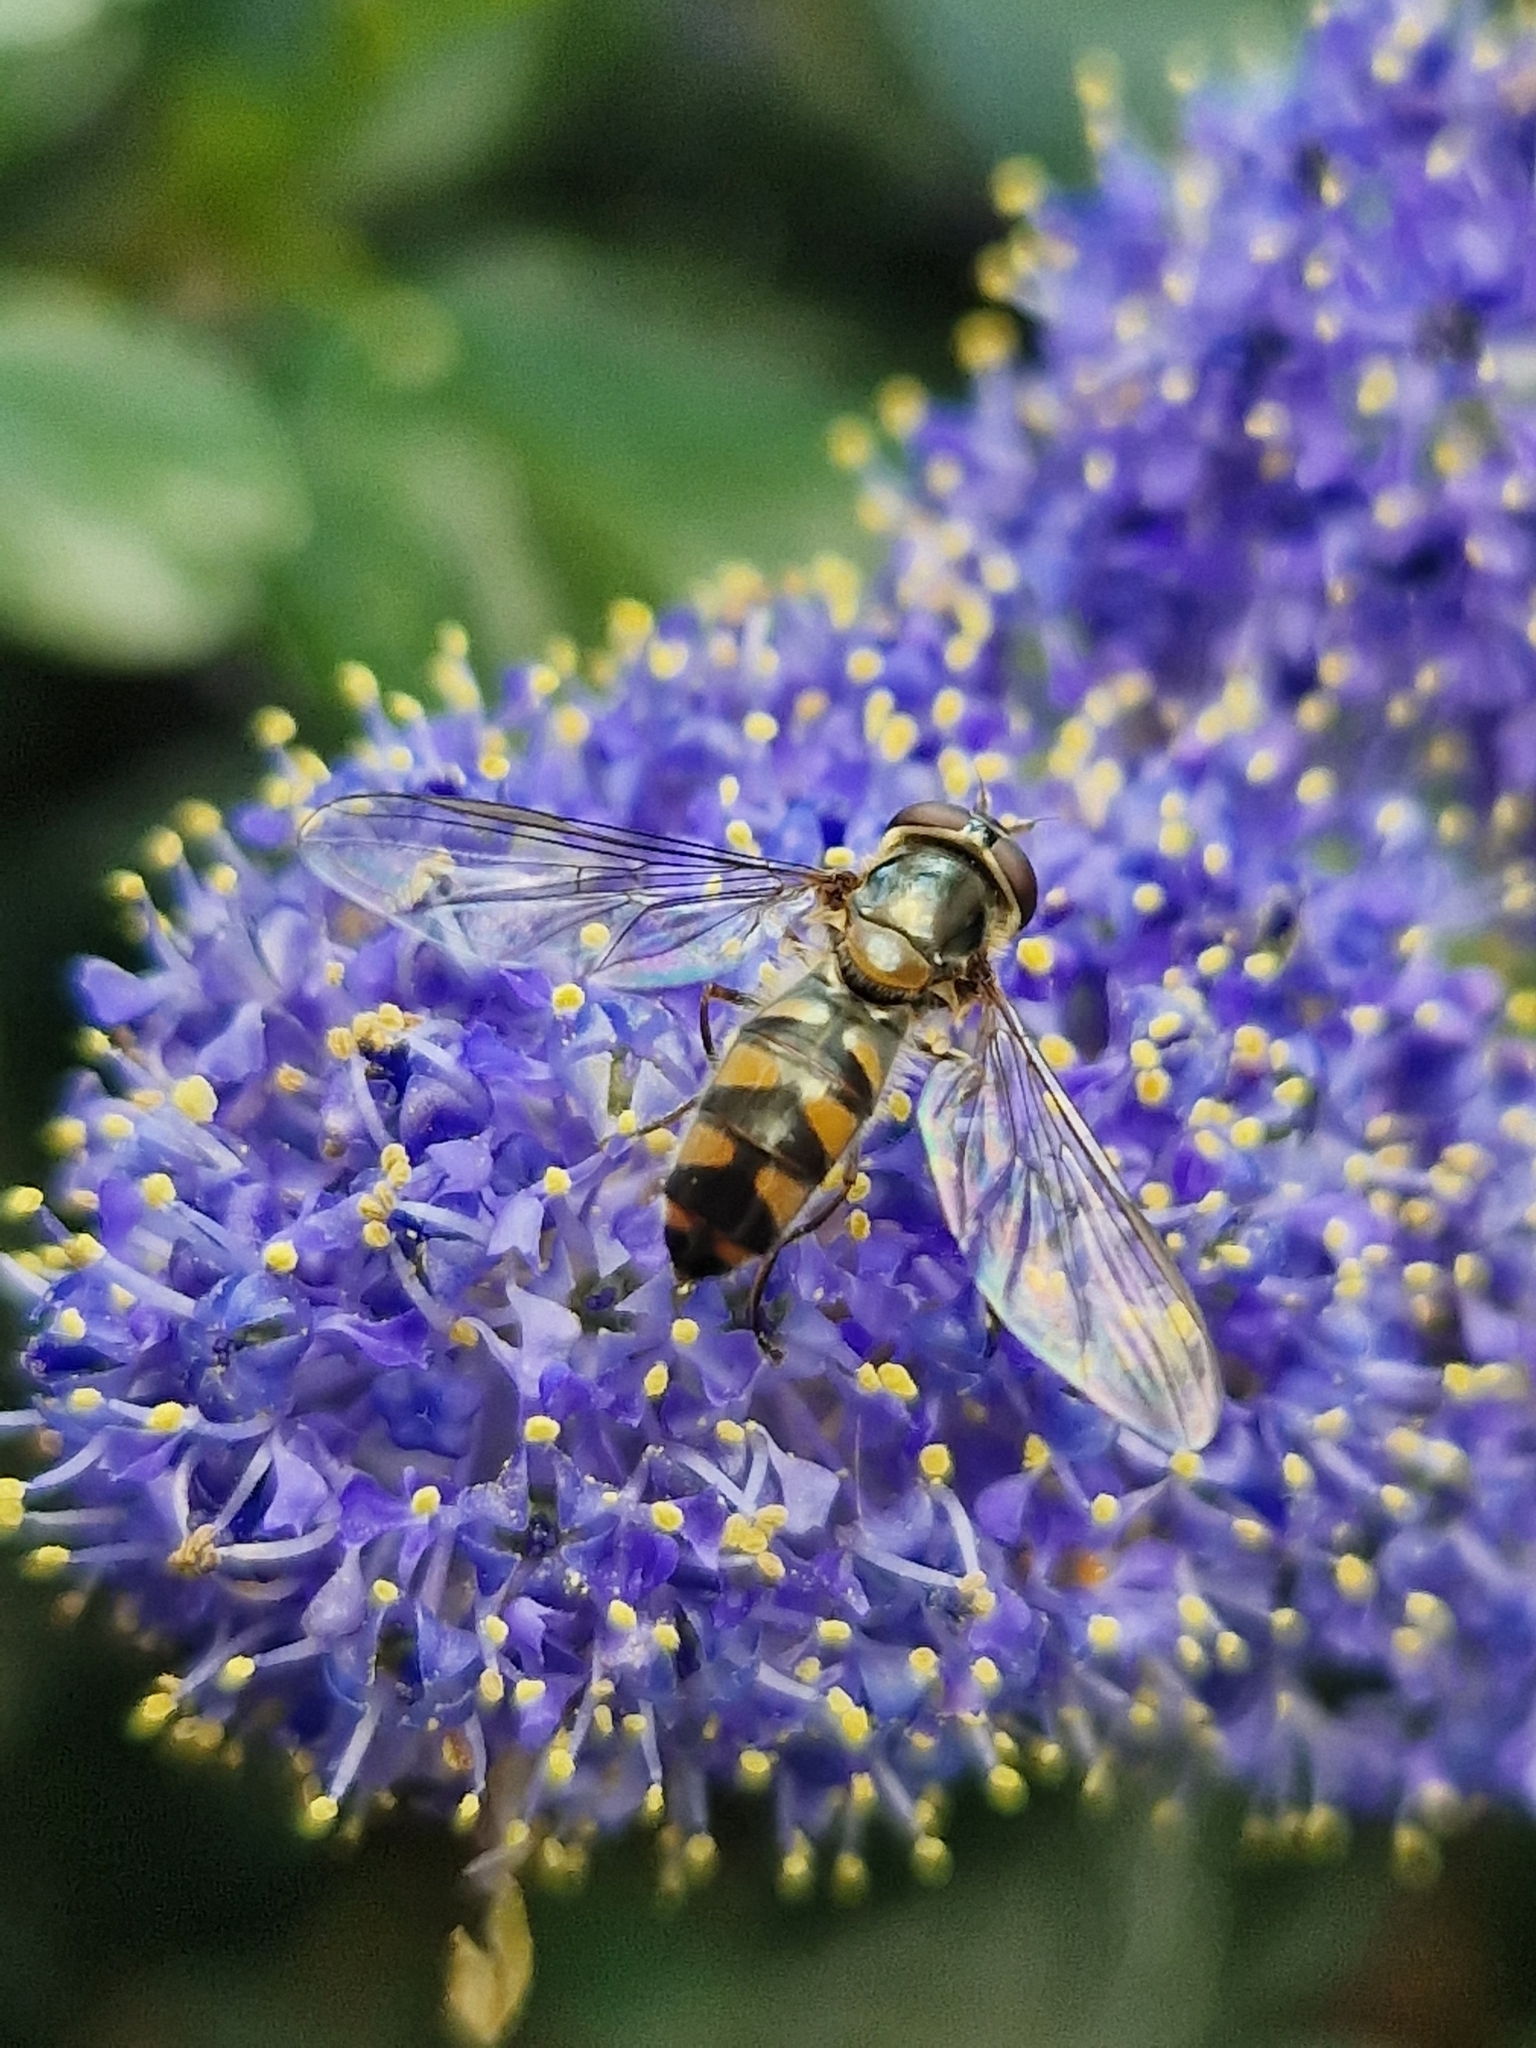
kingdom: Animalia
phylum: Arthropoda
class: Insecta
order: Diptera
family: Syrphidae
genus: Meliscaeva
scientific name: Meliscaeva auricollis
